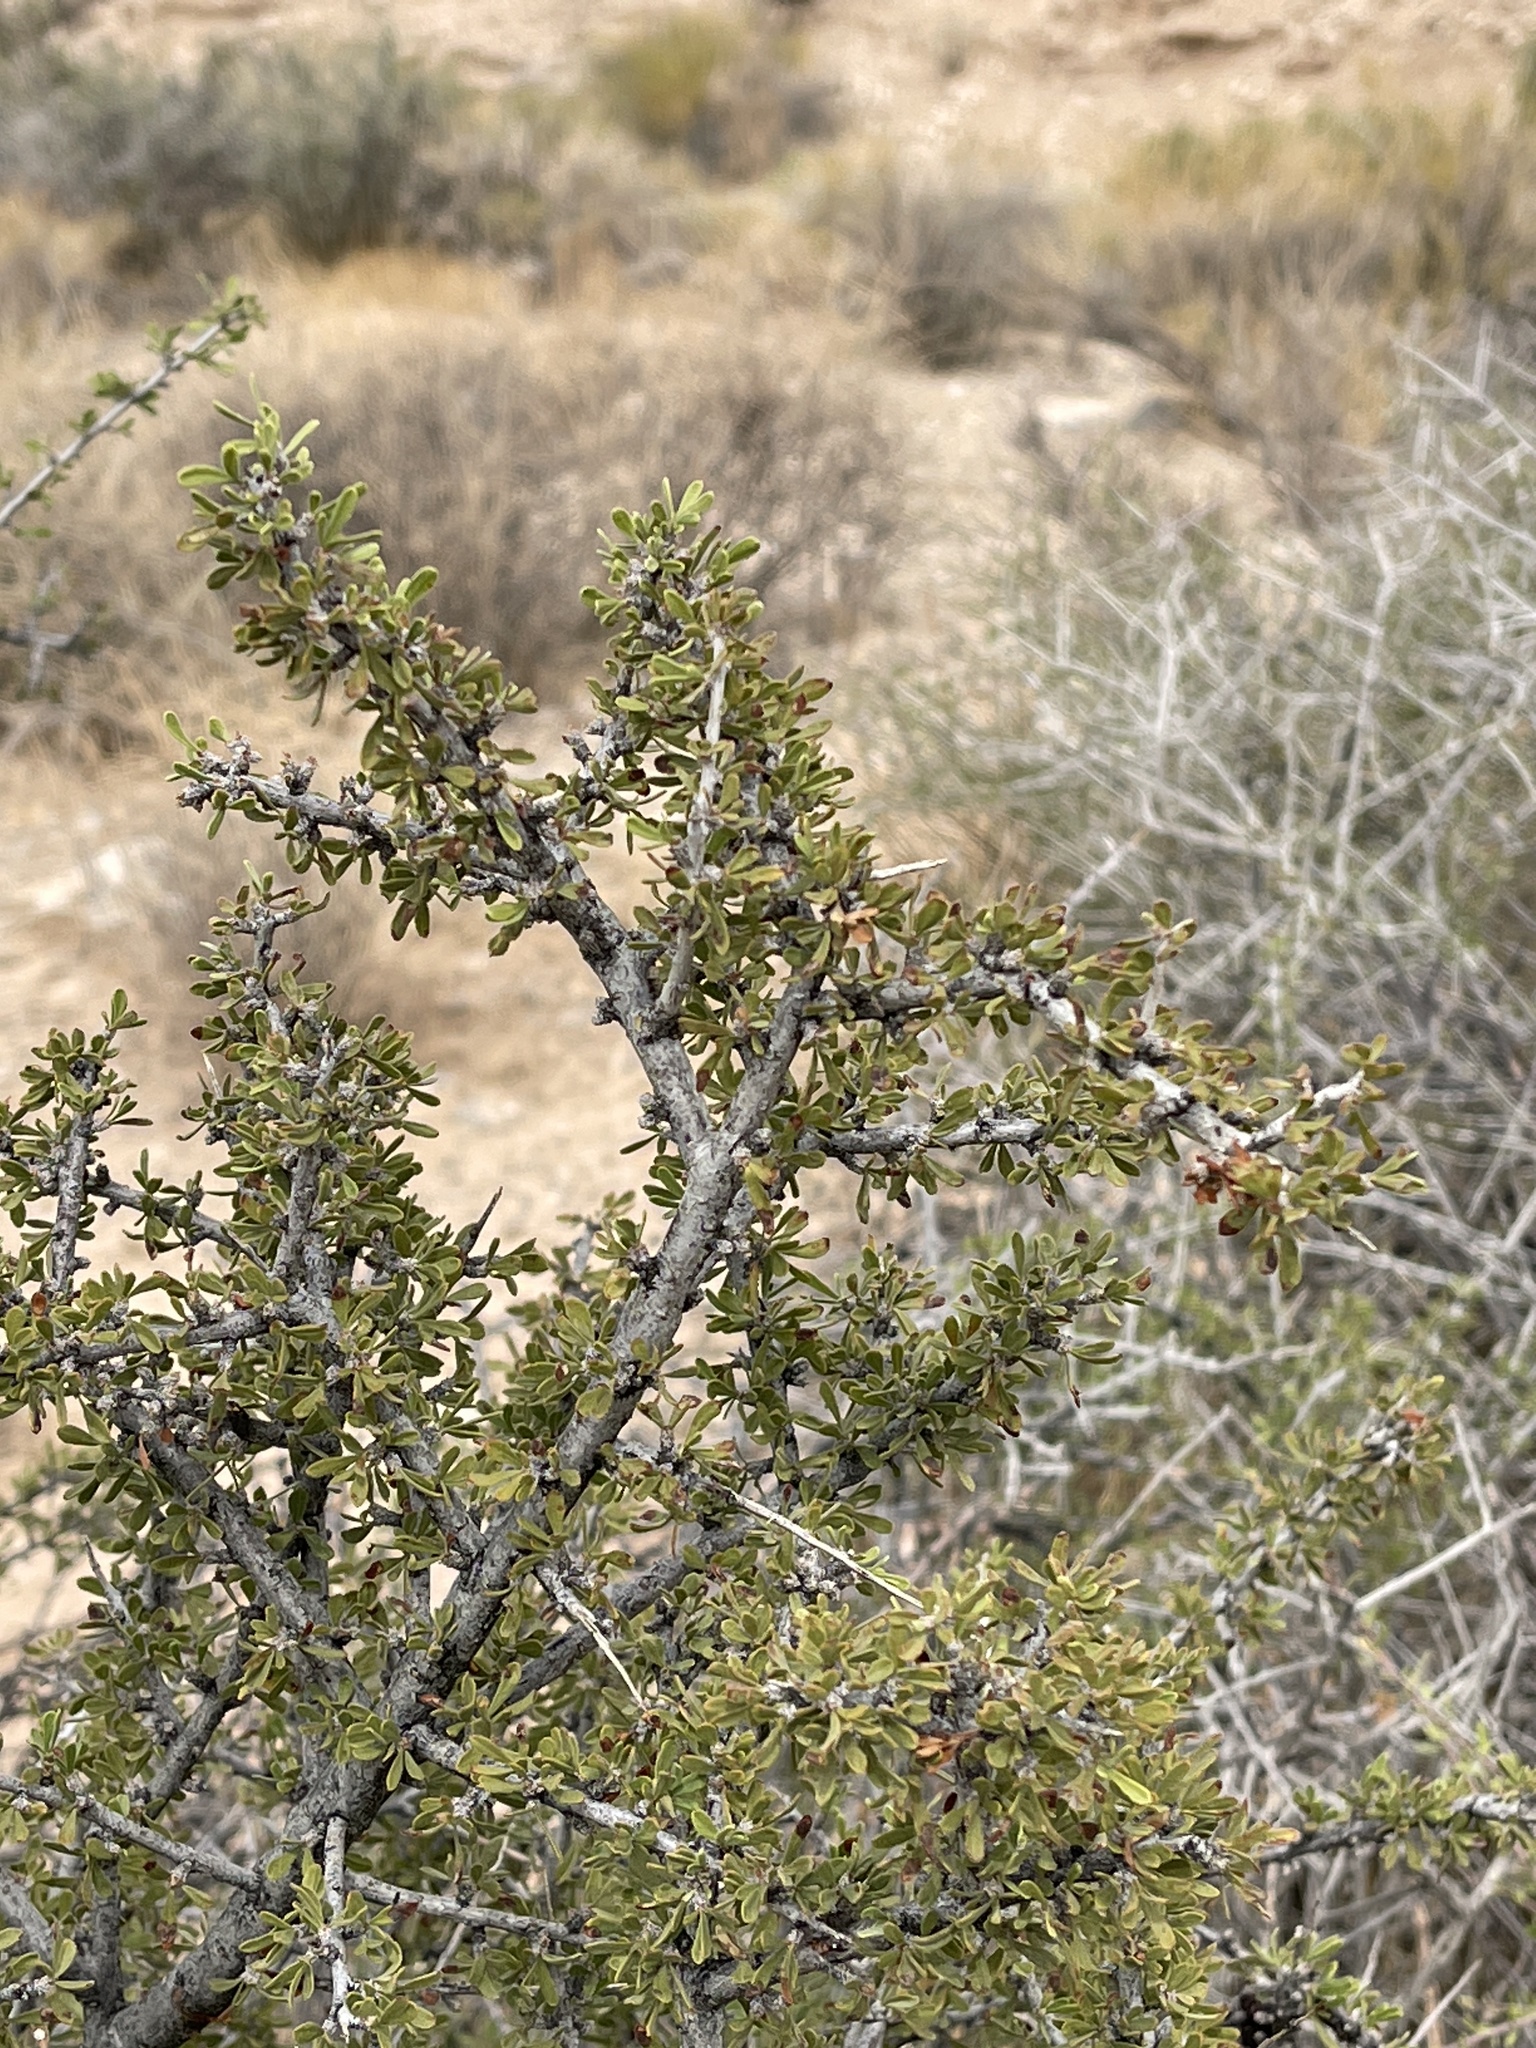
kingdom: Plantae
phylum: Tracheophyta
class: Magnoliopsida
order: Rosales
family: Rosaceae
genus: Prunus
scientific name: Prunus fasciculata
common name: Desert almond
